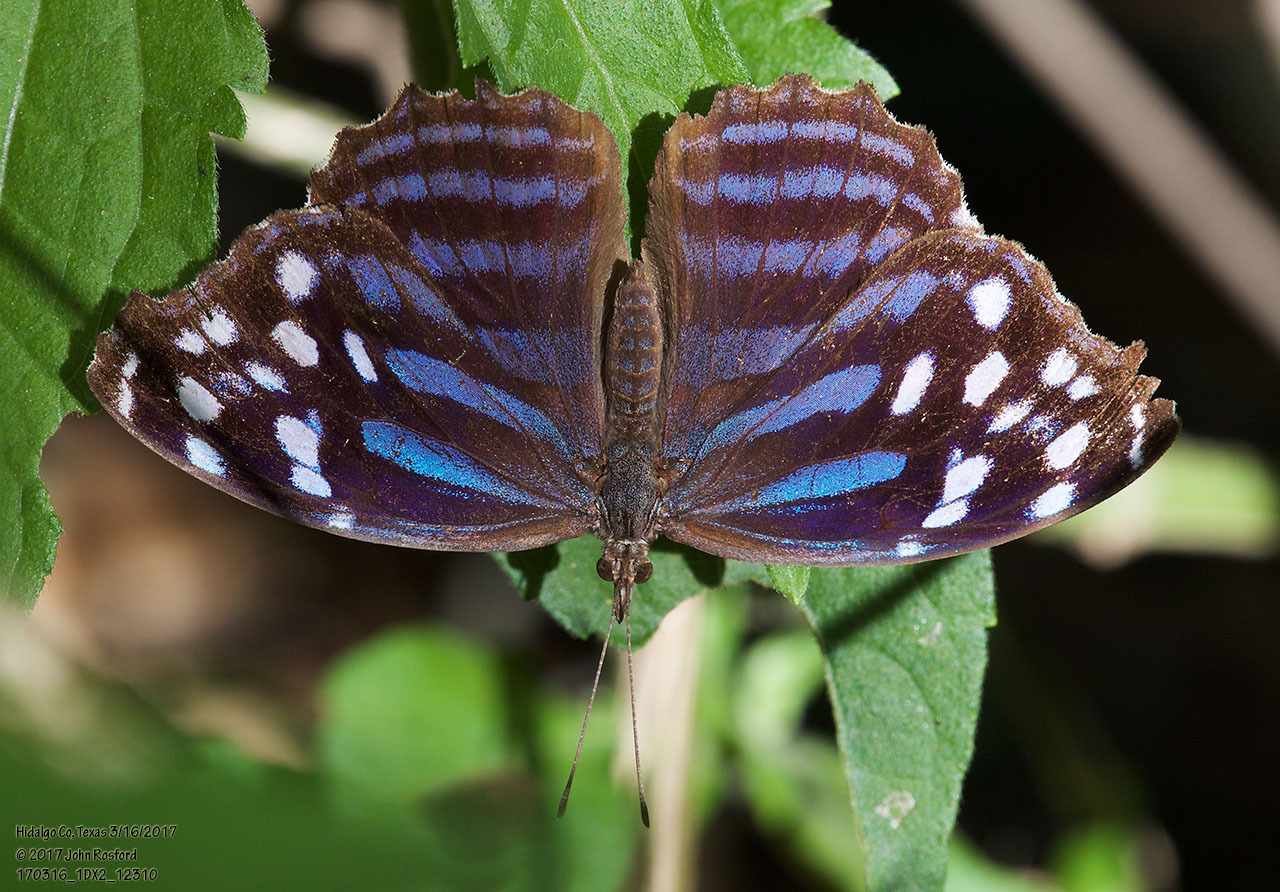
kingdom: Animalia
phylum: Arthropoda
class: Insecta
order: Lepidoptera
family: Nymphalidae
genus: Myscelia
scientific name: Myscelia ethusa
